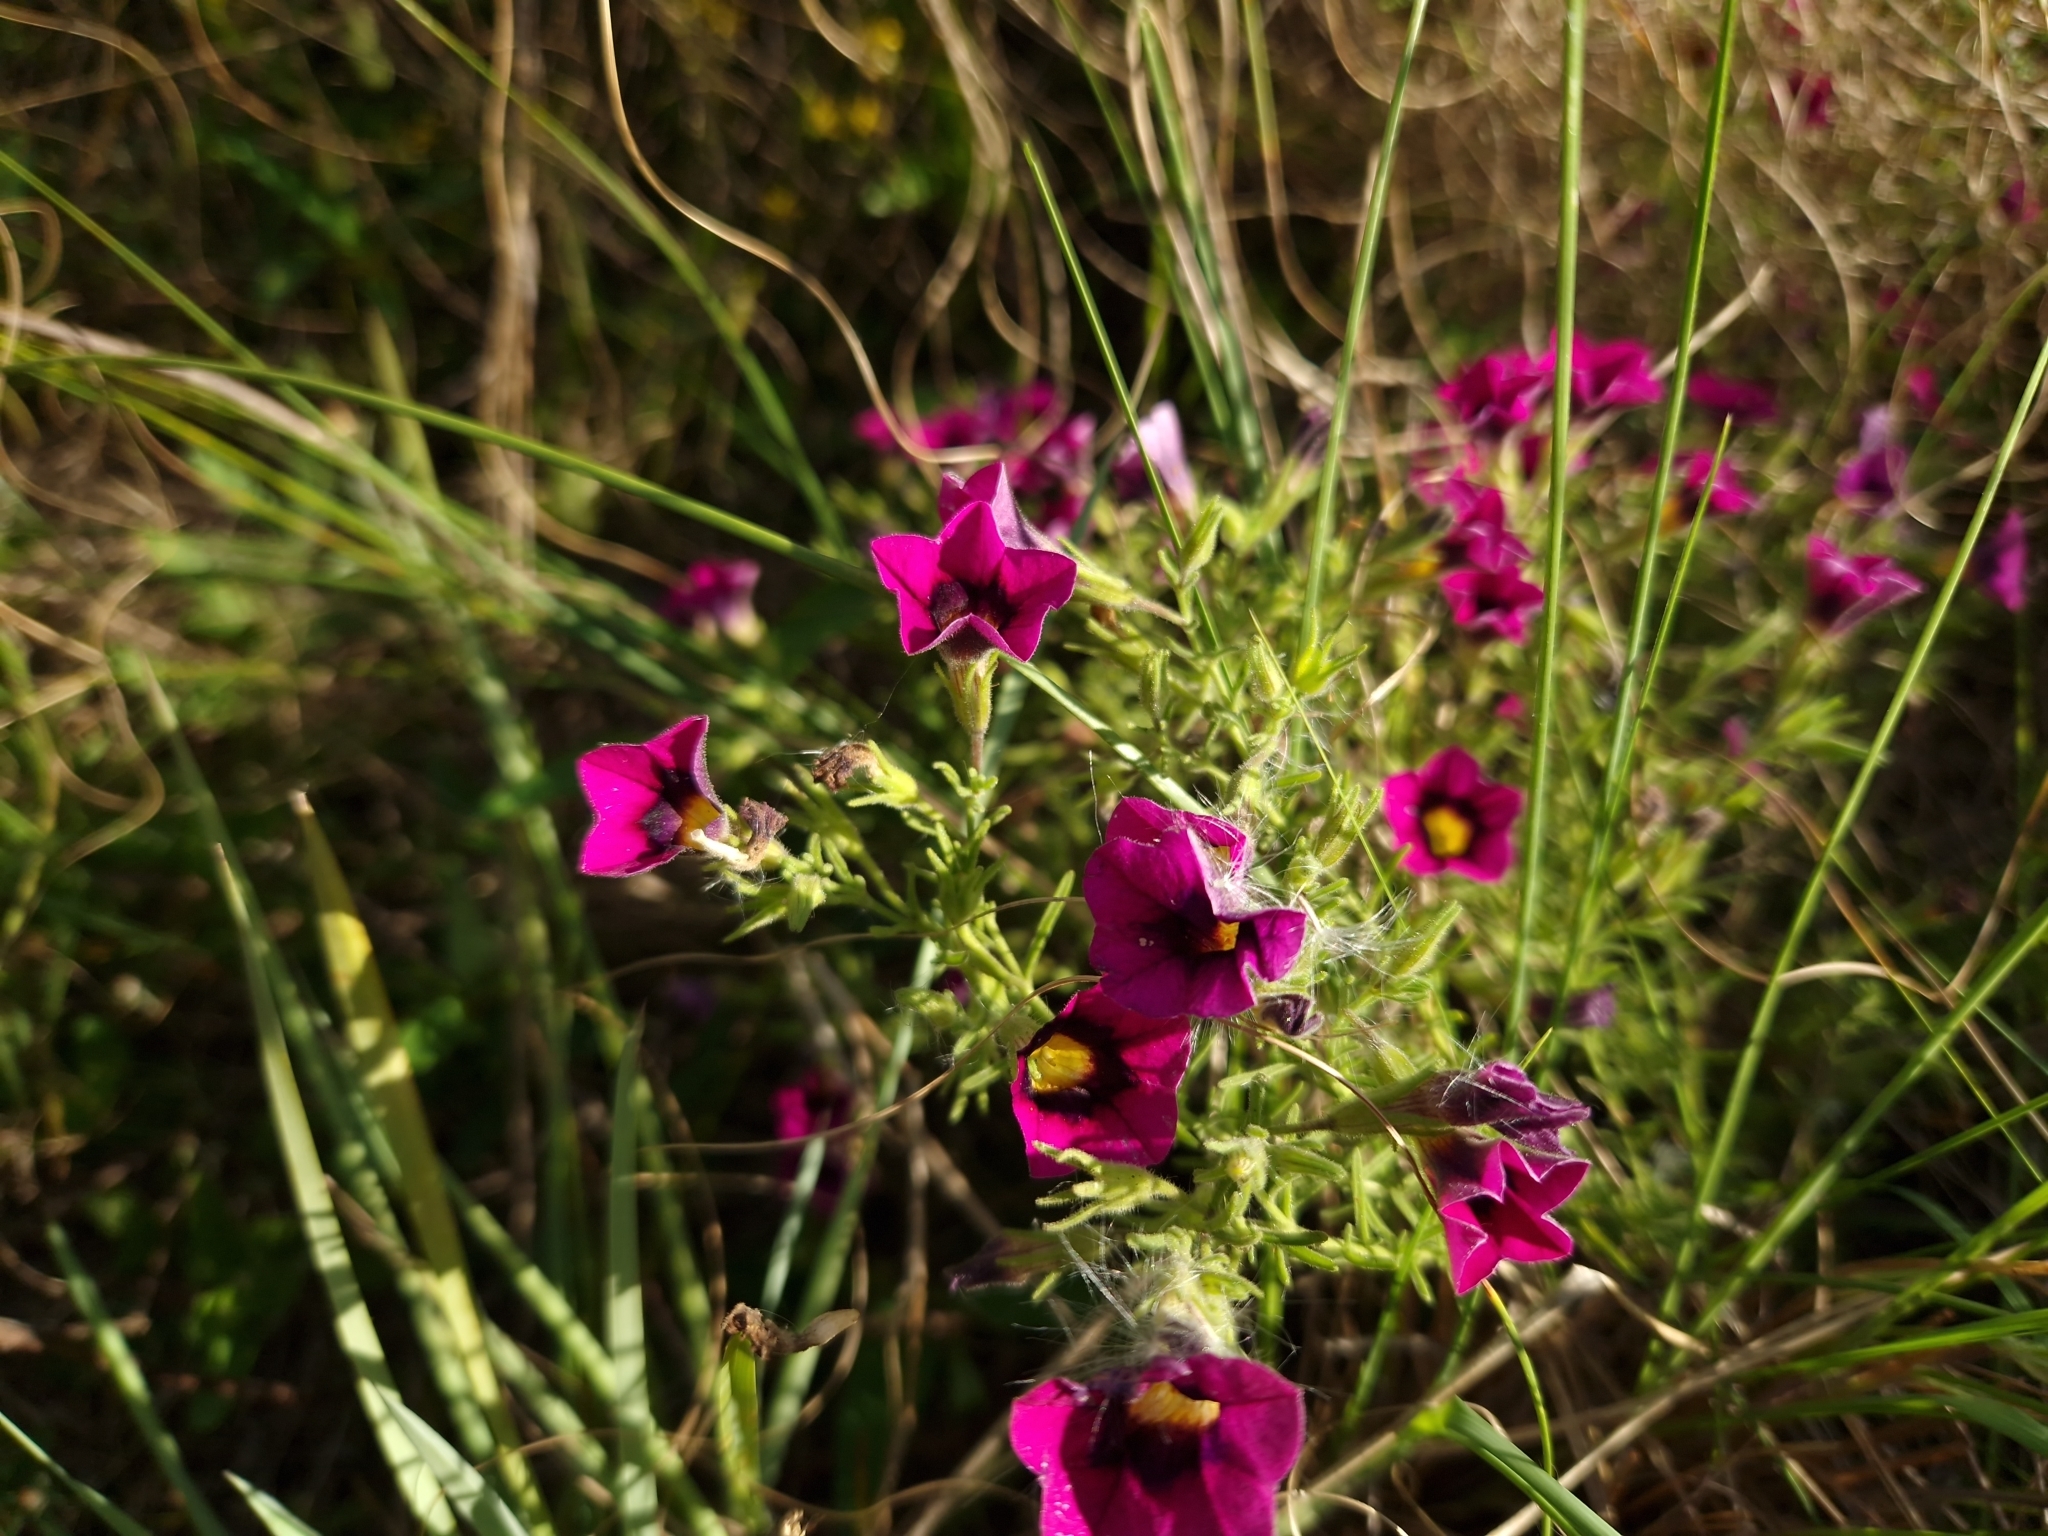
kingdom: Plantae
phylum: Tracheophyta
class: Magnoliopsida
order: Solanales
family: Solanaceae
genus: Calibrachoa
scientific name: Calibrachoa thymifolia
